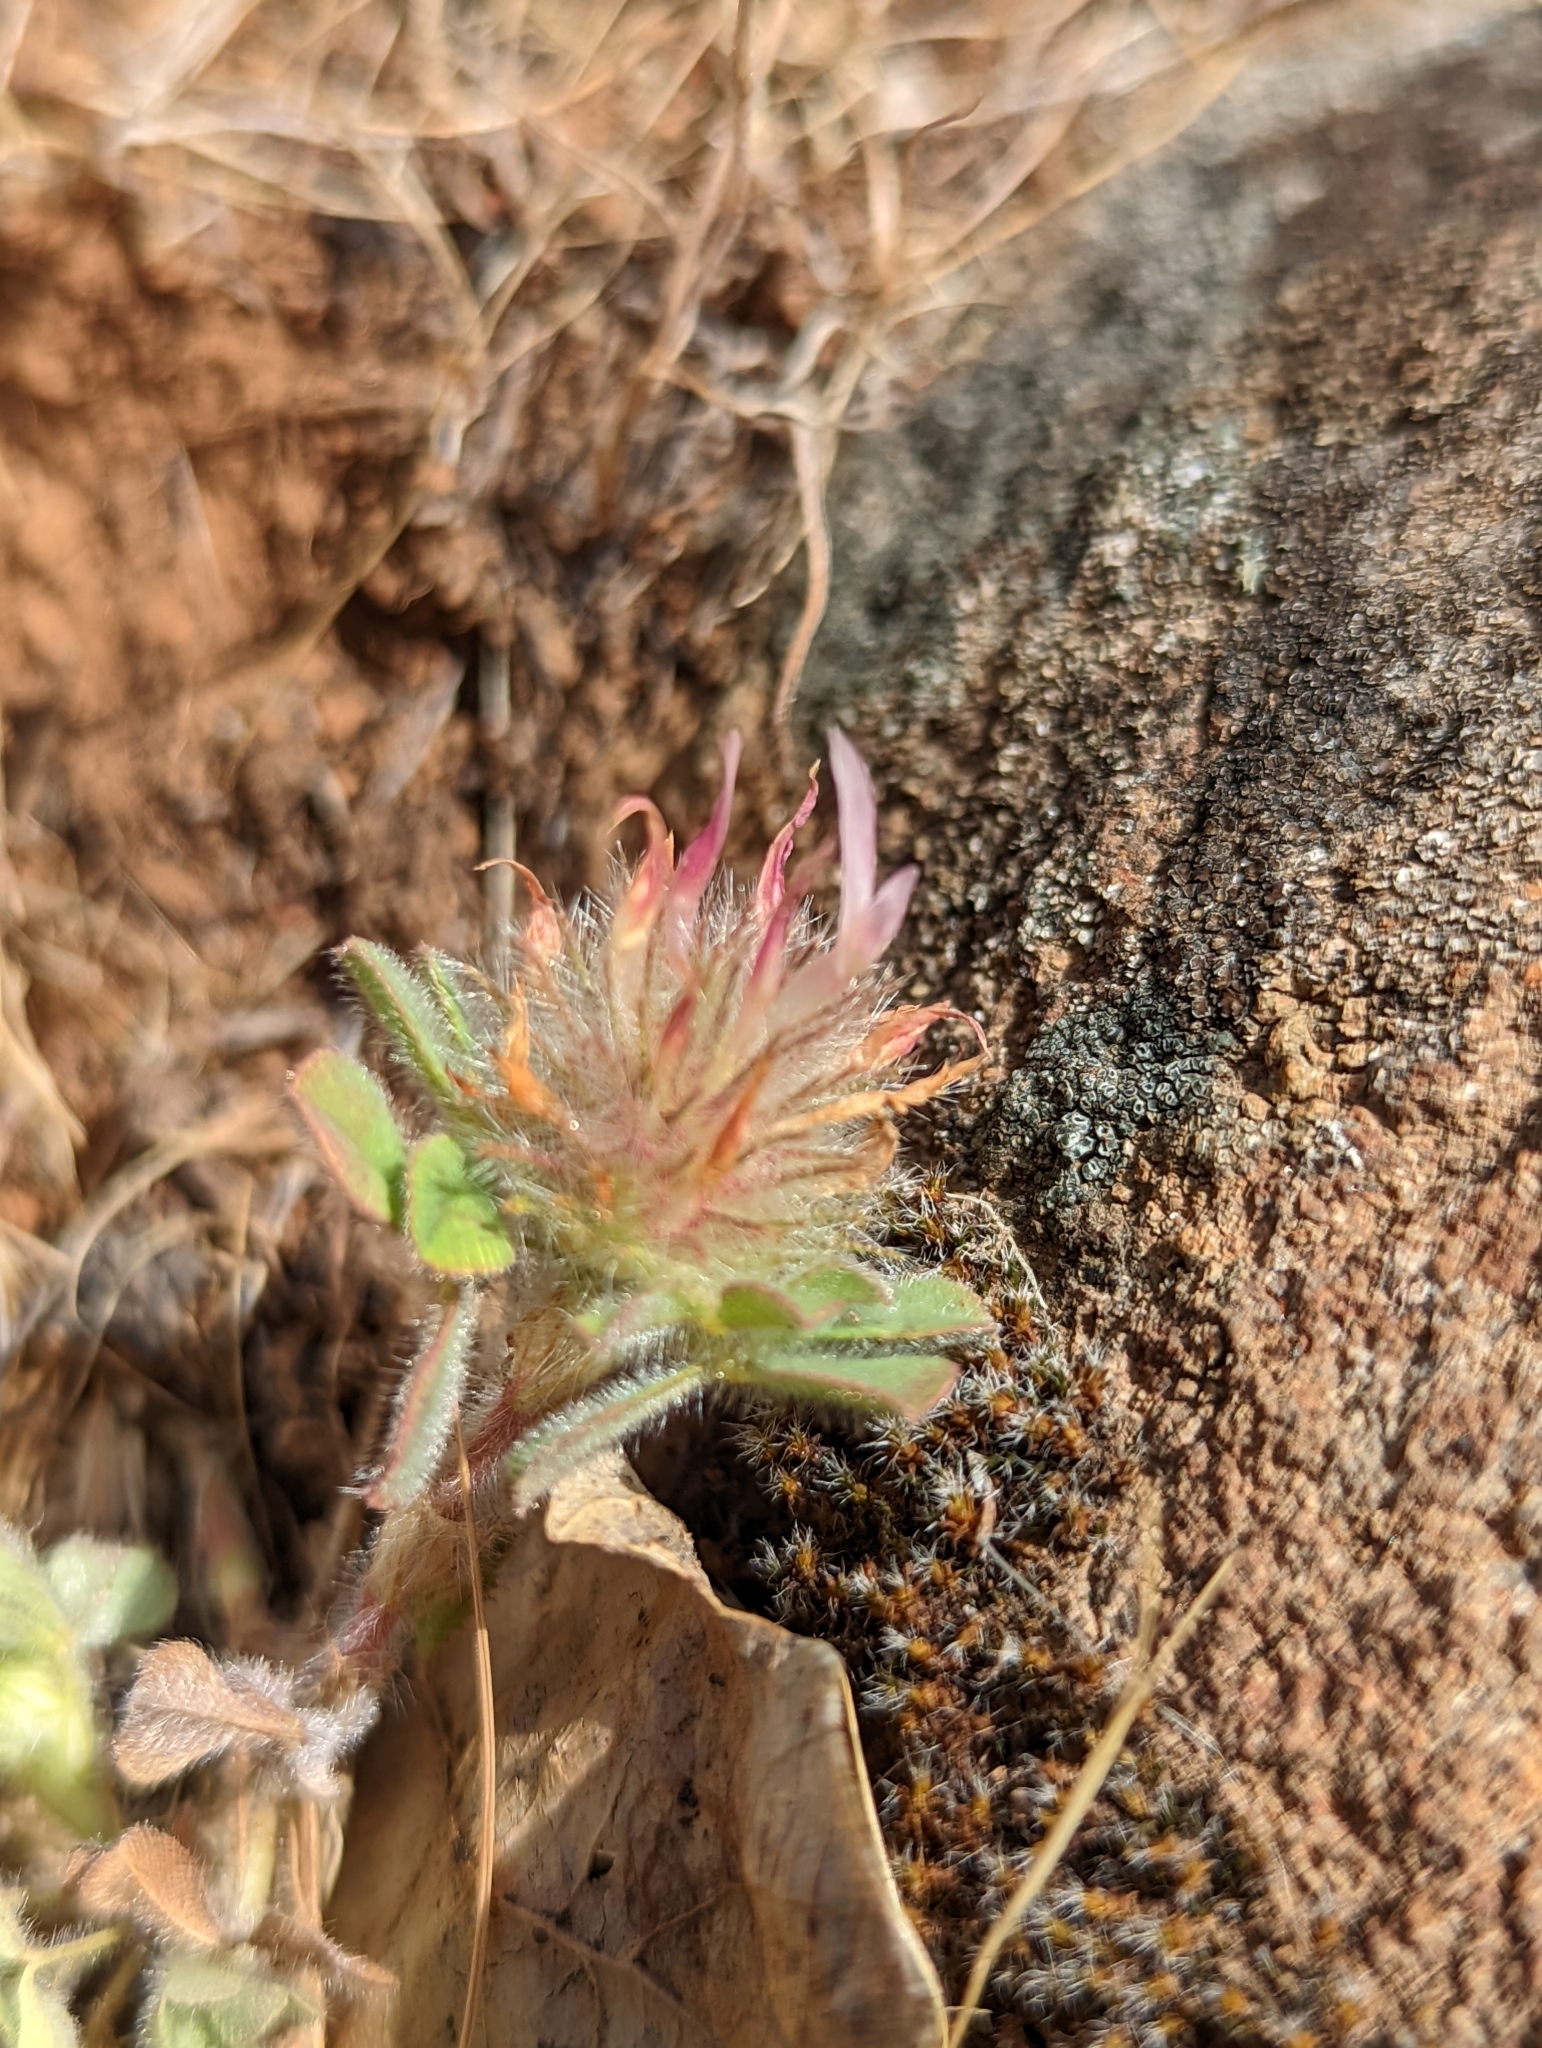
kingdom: Plantae
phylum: Tracheophyta
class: Magnoliopsida
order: Fabales
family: Fabaceae
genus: Trifolium
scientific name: Trifolium hirtum
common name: Rose clover
